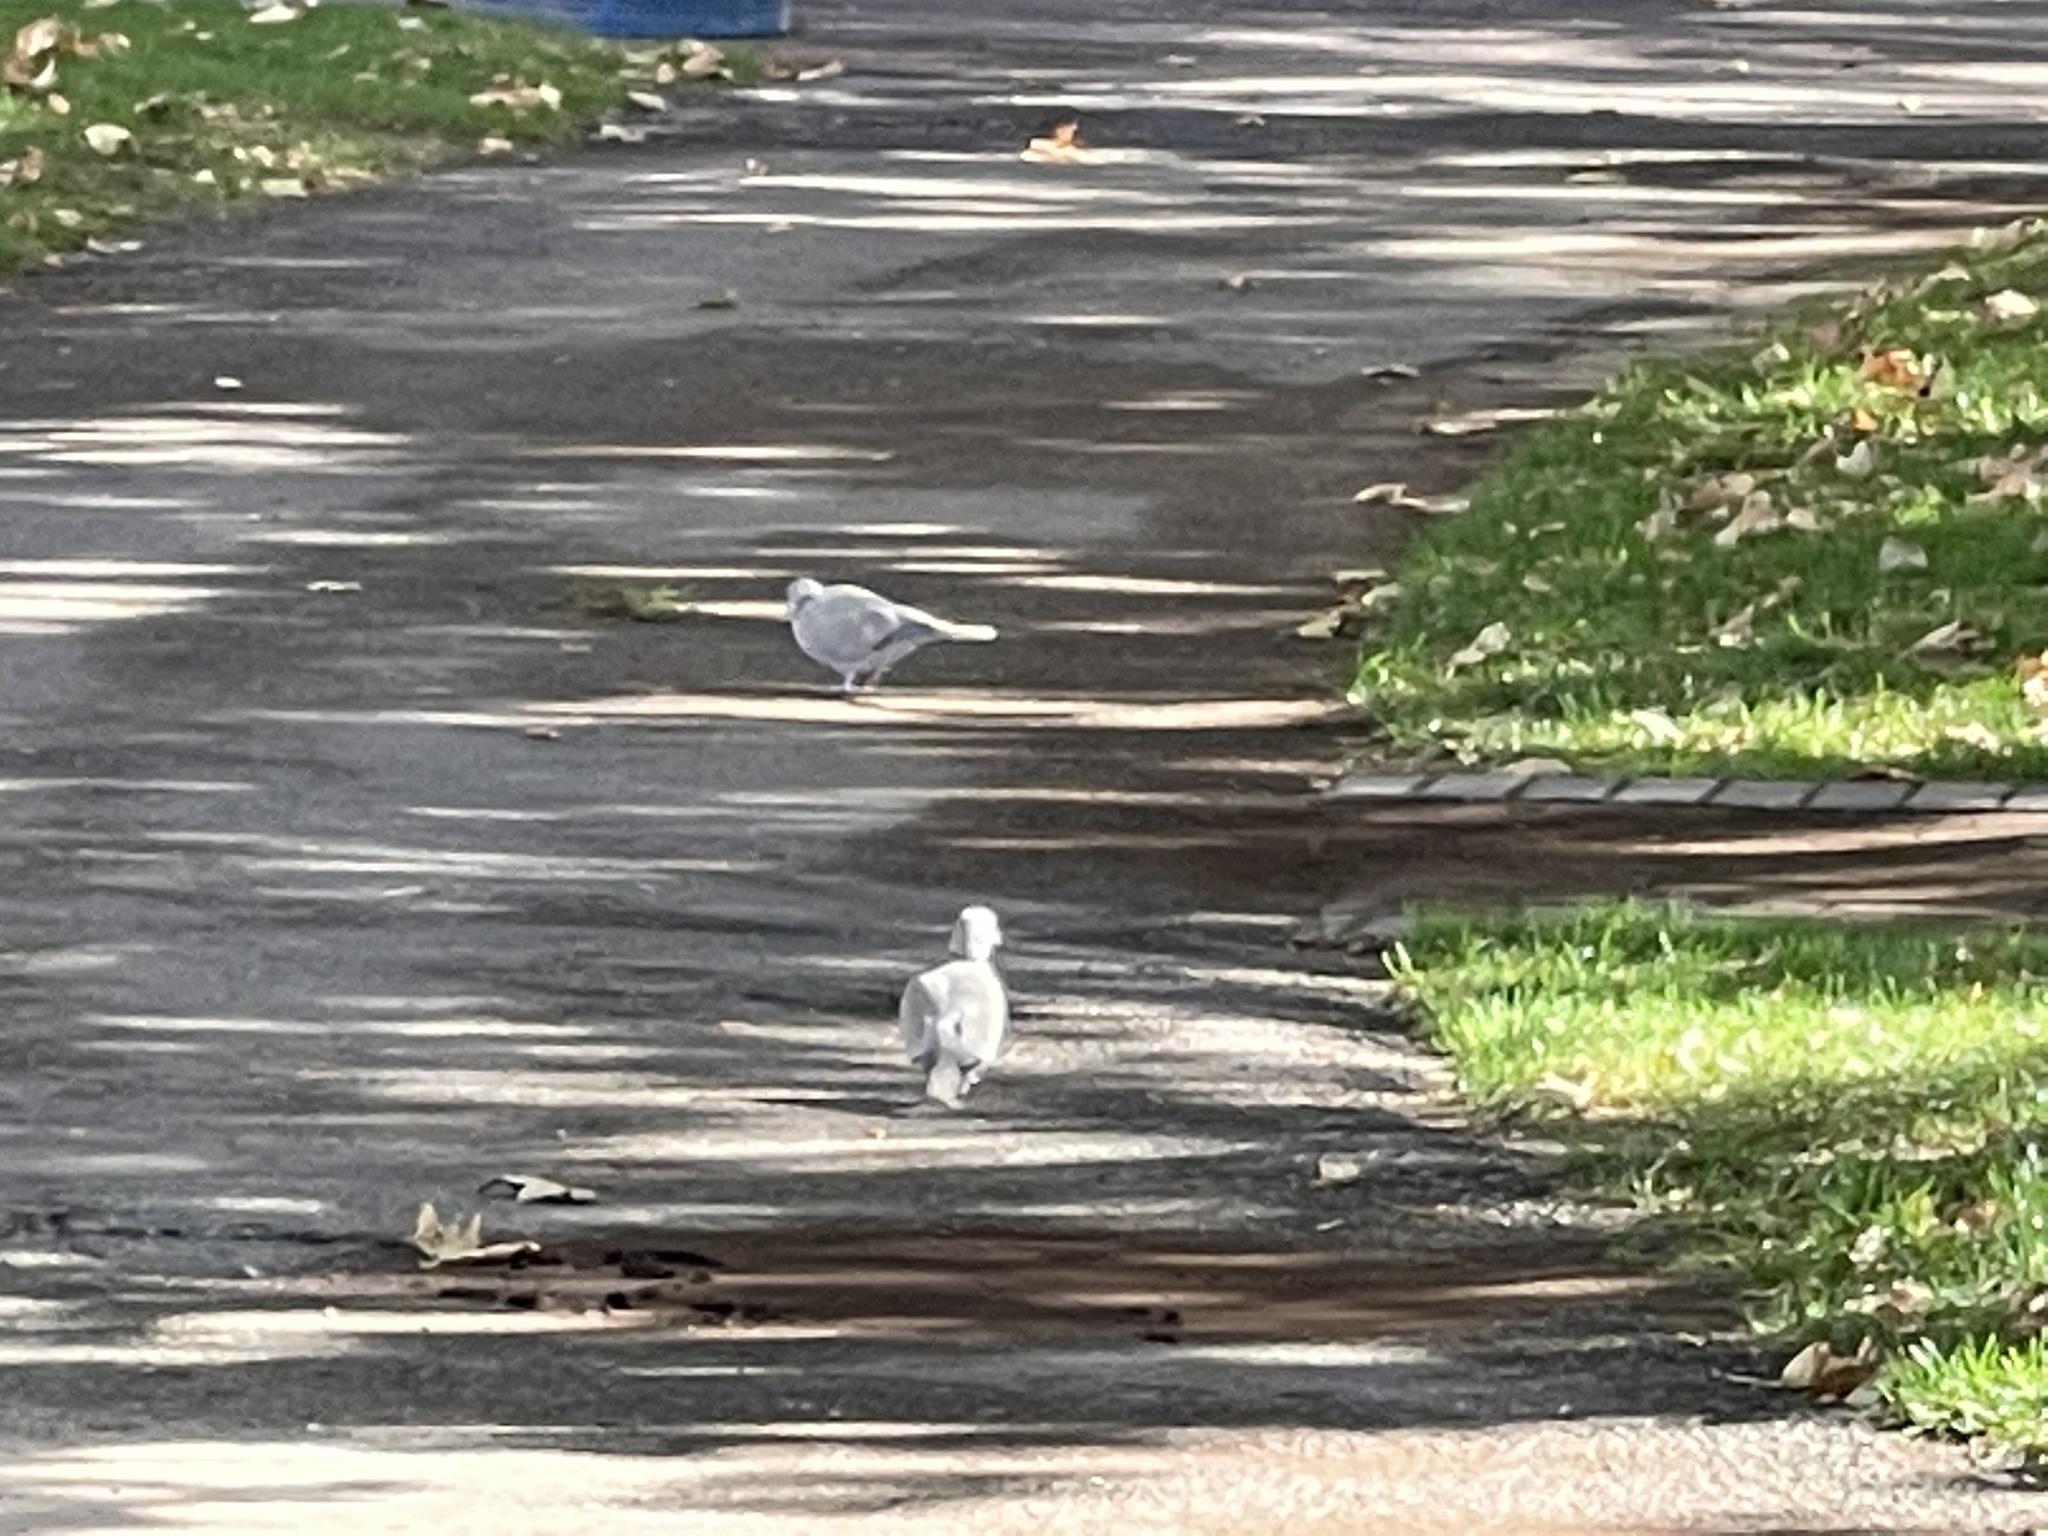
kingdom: Animalia
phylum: Chordata
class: Aves
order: Columbiformes
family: Columbidae
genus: Streptopelia
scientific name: Streptopelia decaocto
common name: Eurasian collared dove
